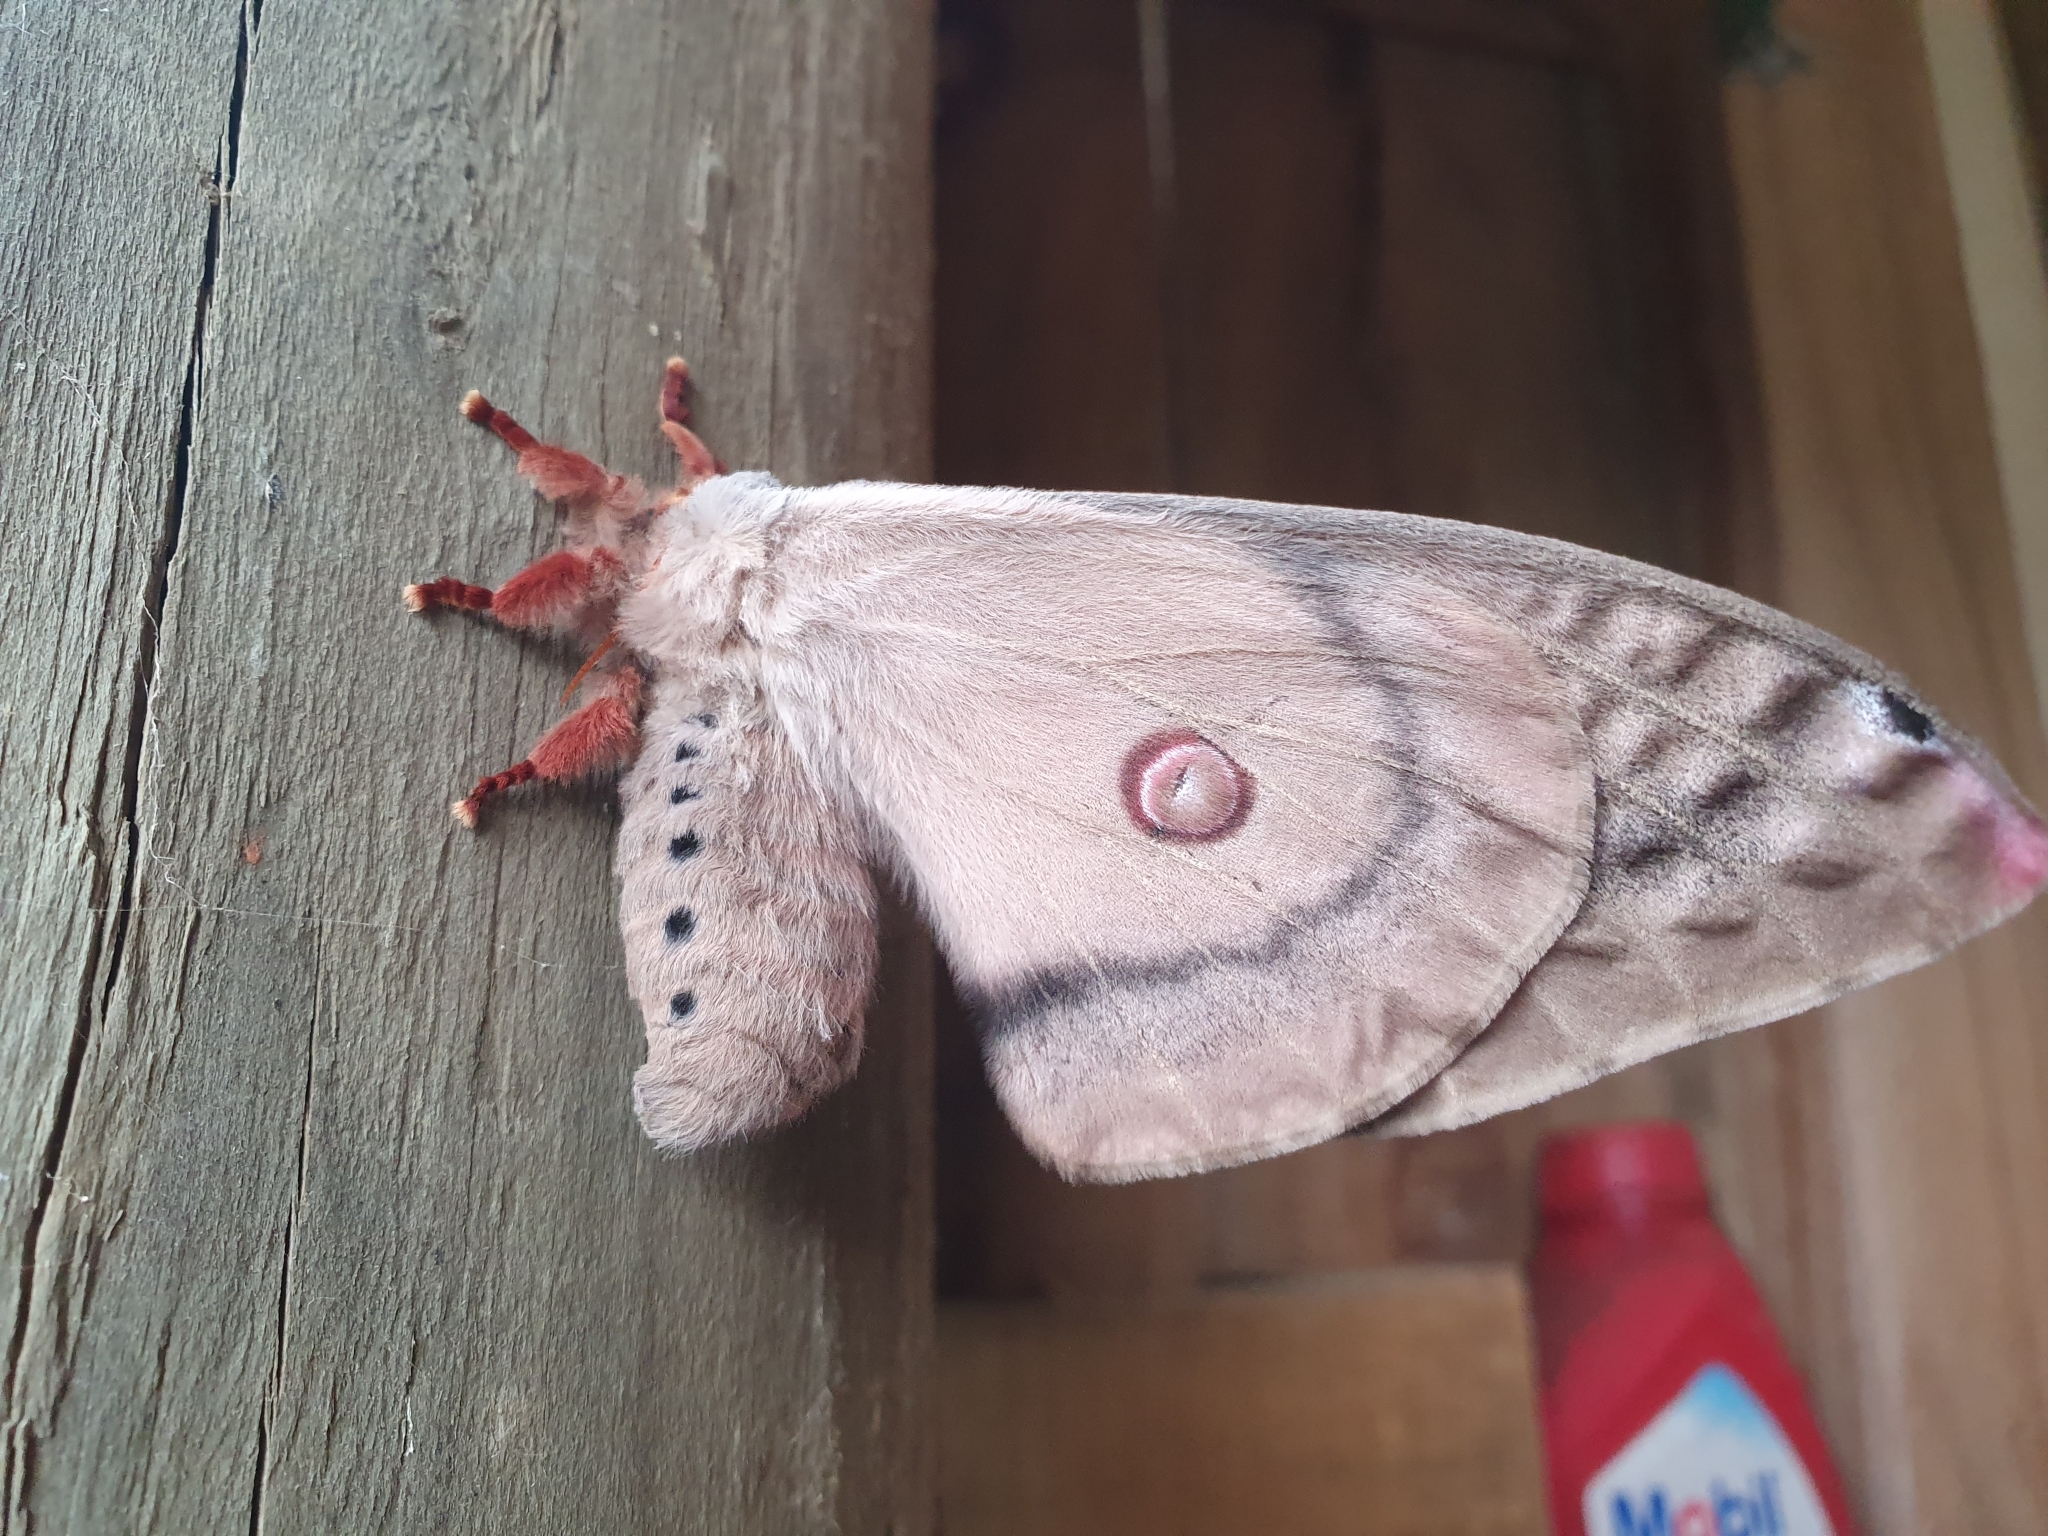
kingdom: Animalia
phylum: Arthropoda
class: Insecta
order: Lepidoptera
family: Saturniidae
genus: Opodiphthera
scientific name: Opodiphthera
